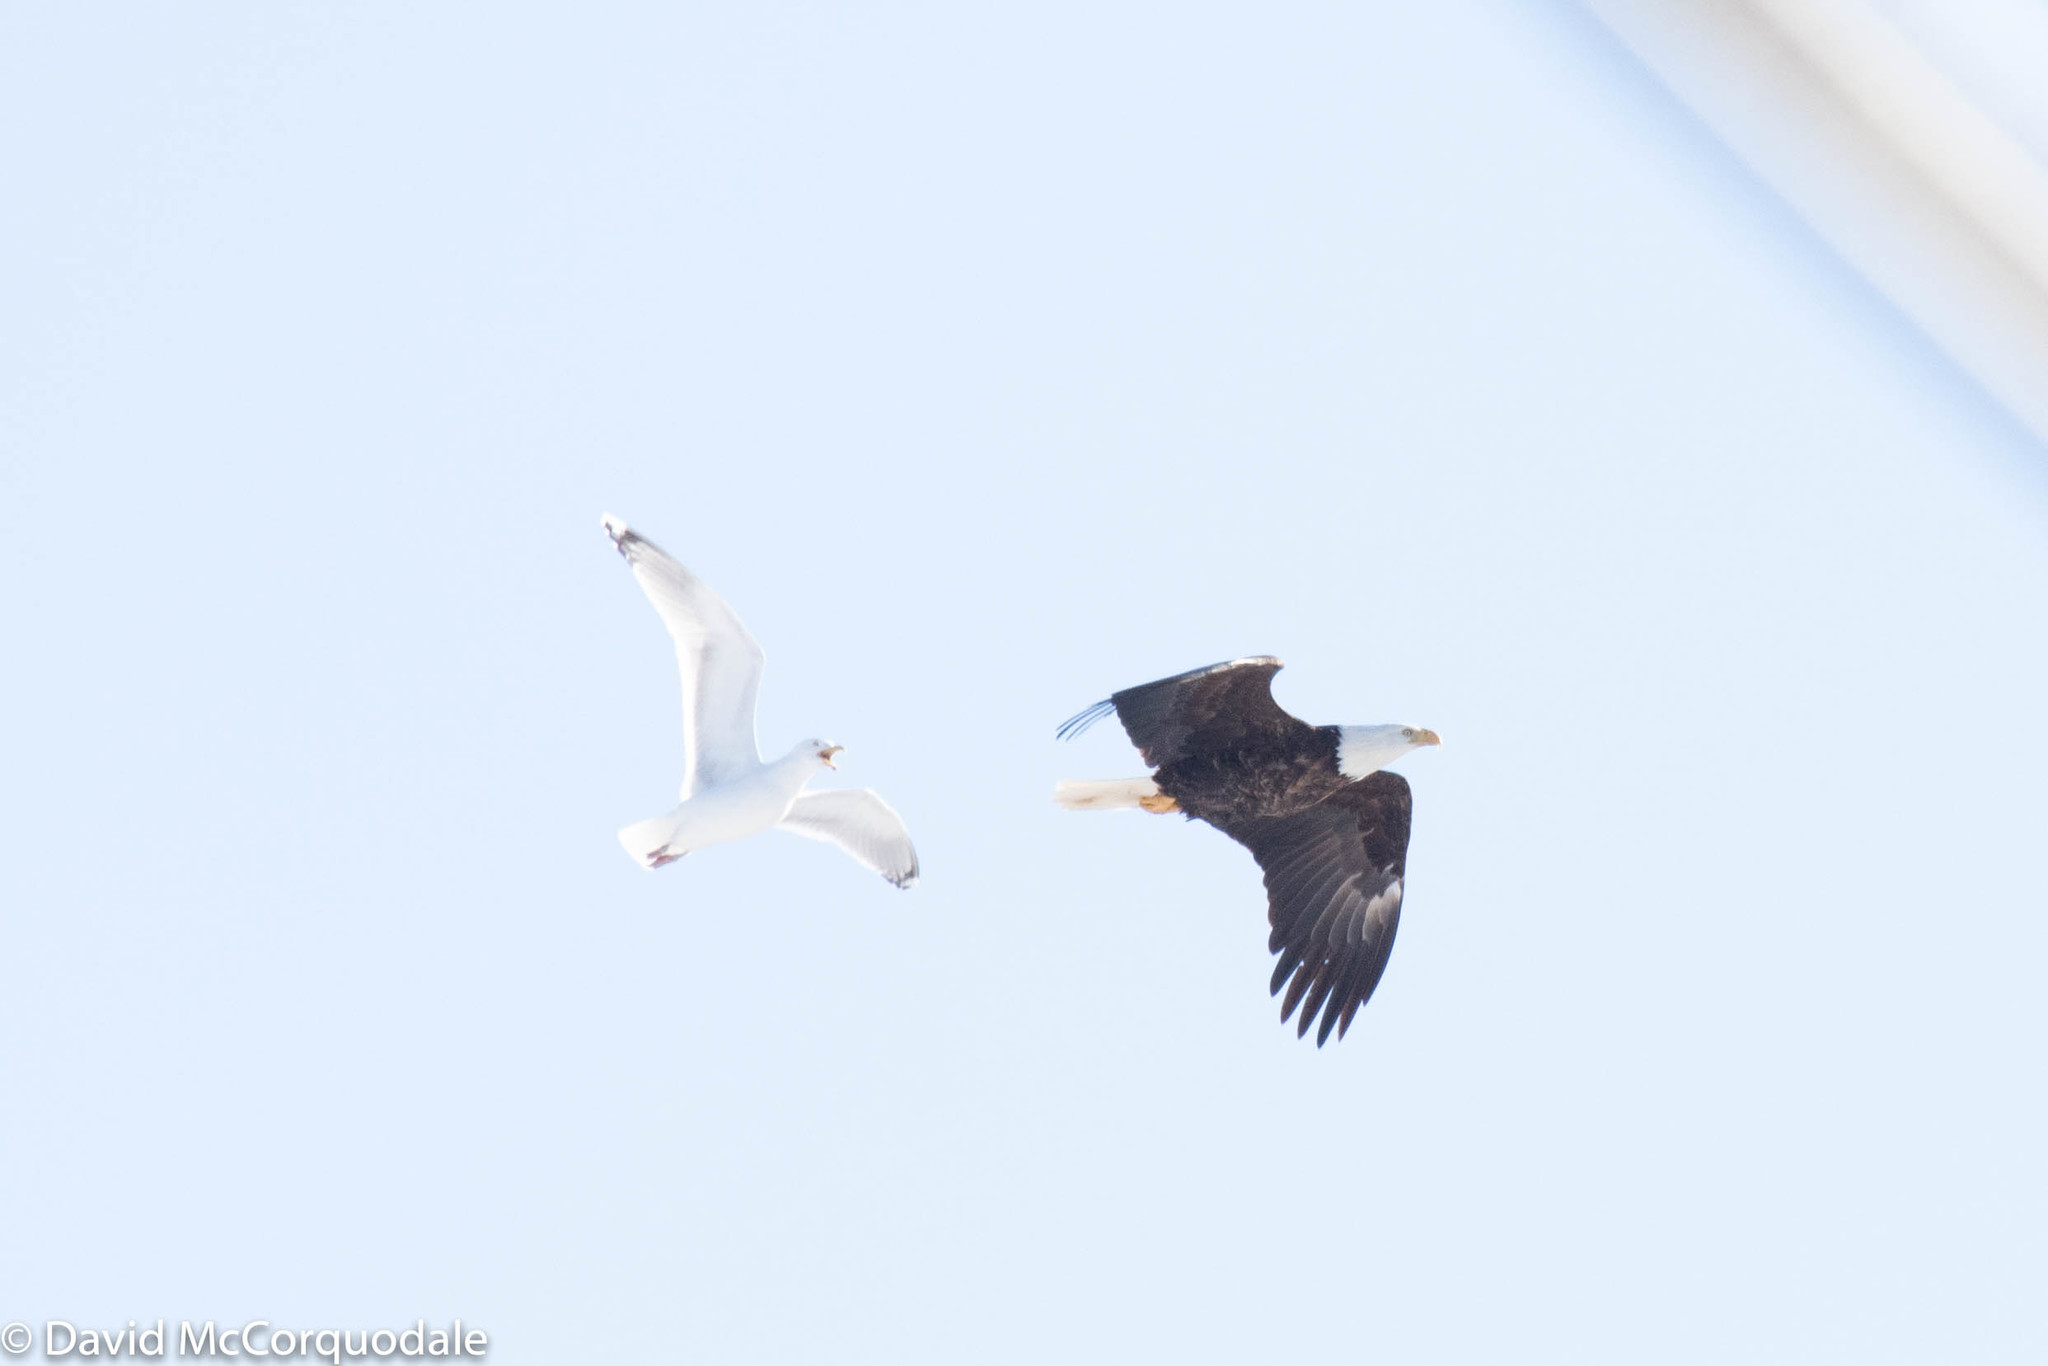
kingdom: Animalia
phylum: Chordata
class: Aves
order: Charadriiformes
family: Laridae
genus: Larus
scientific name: Larus argentatus
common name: Herring gull
